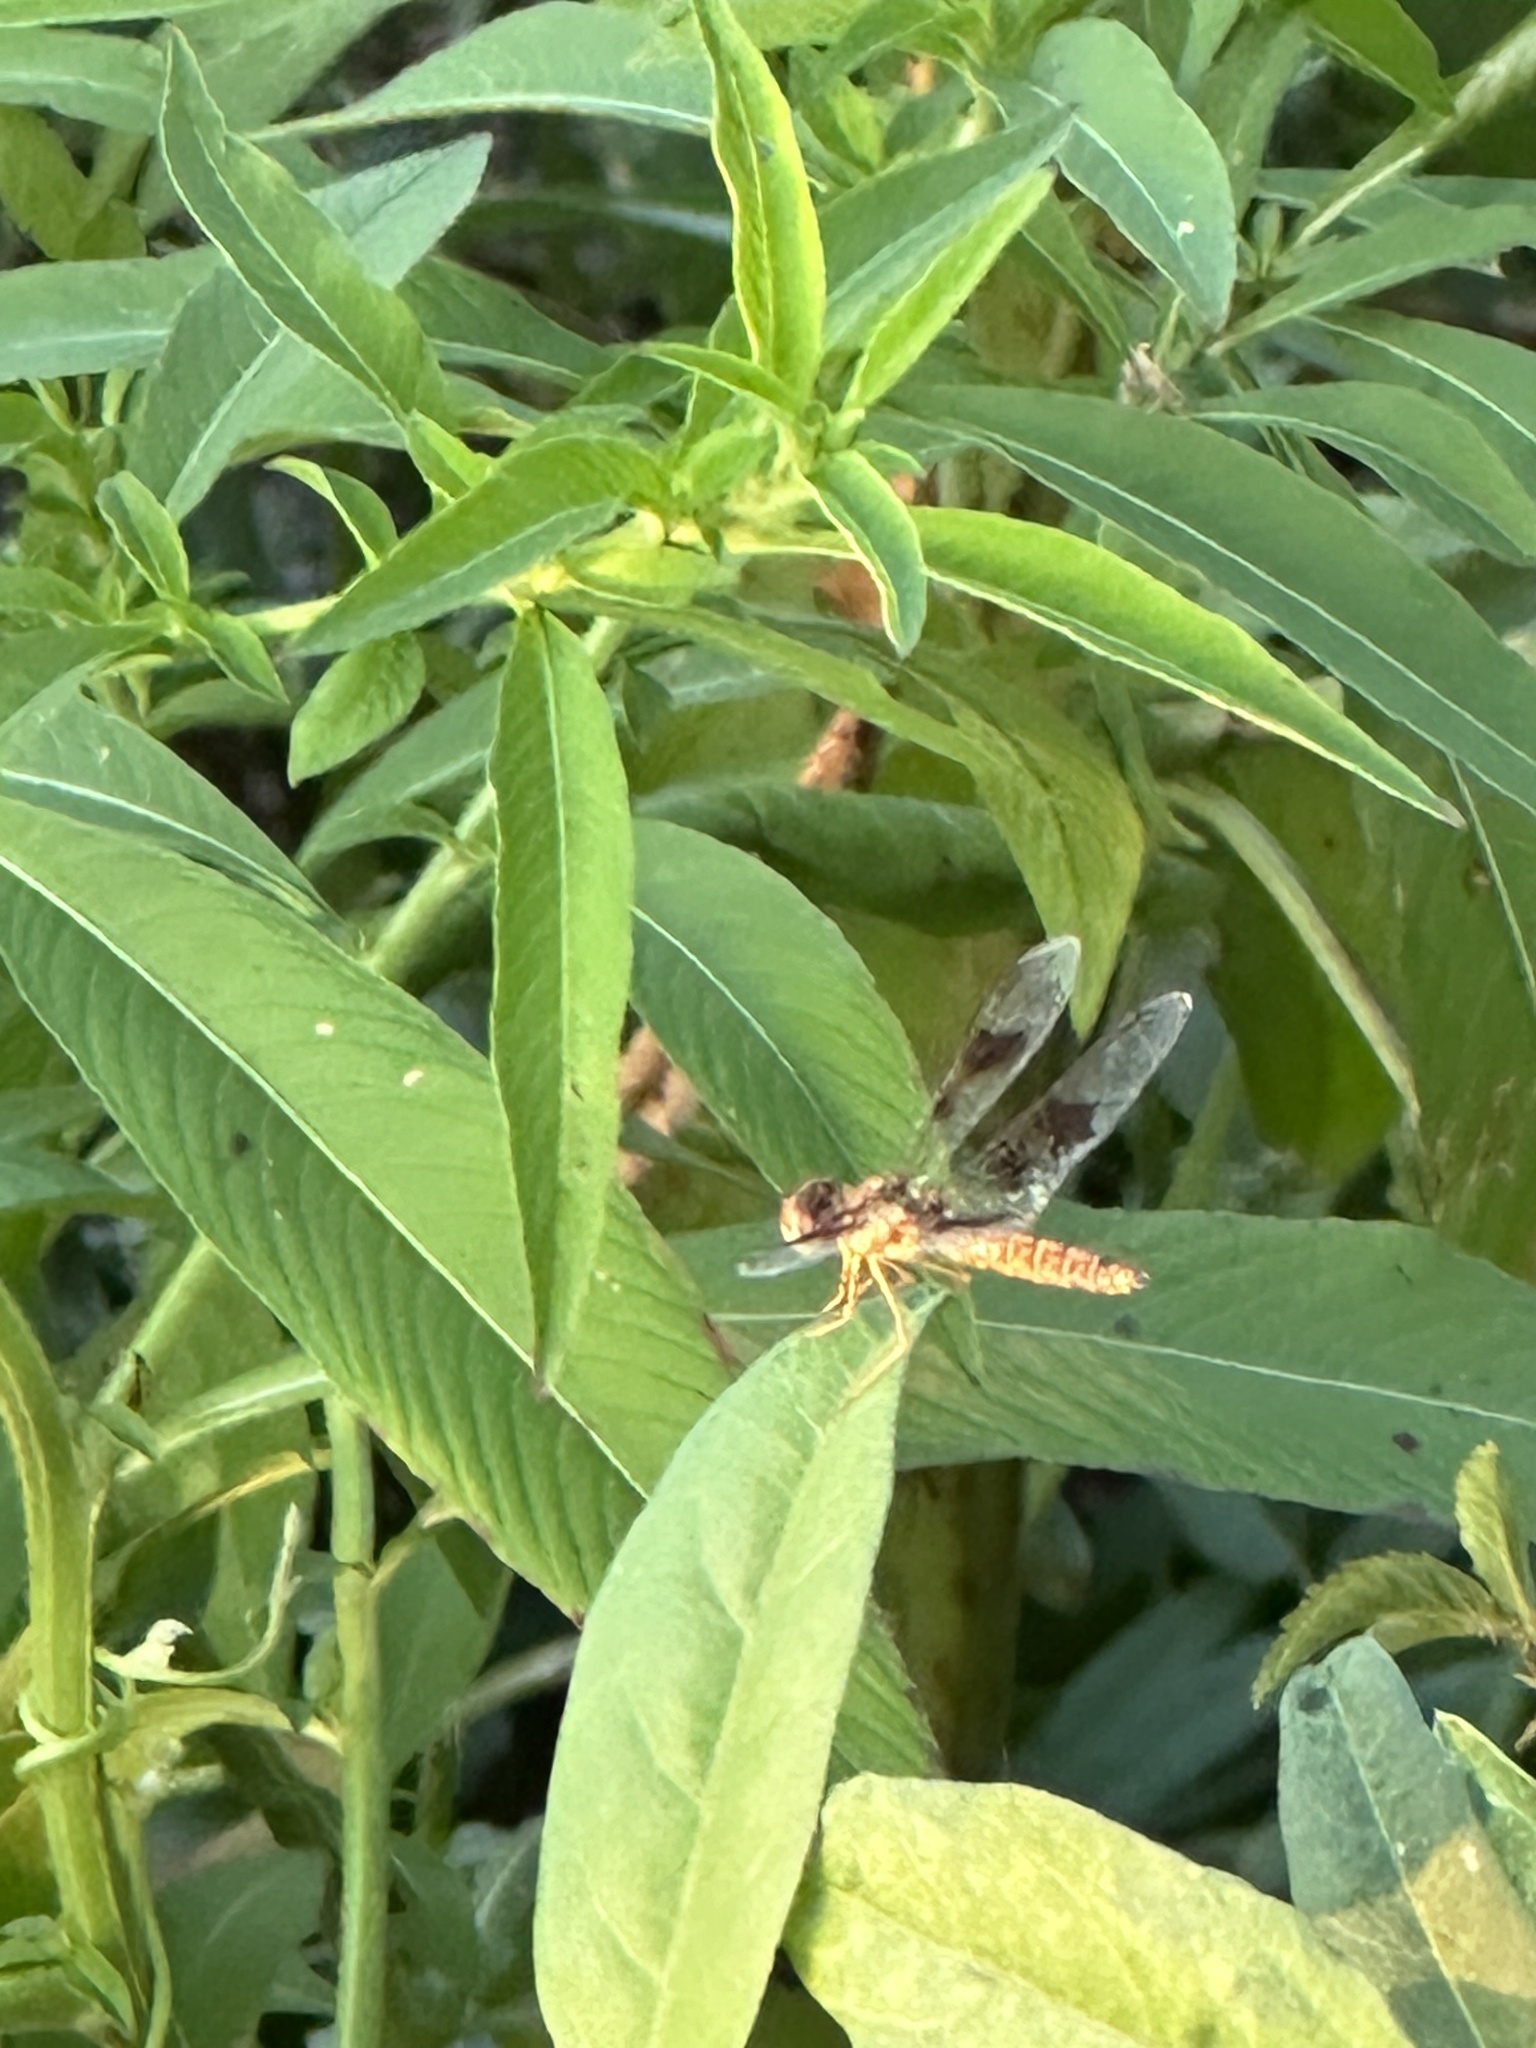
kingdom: Animalia
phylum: Arthropoda
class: Insecta
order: Odonata
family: Libellulidae
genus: Perithemis
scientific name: Perithemis tenera
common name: Eastern amberwing
